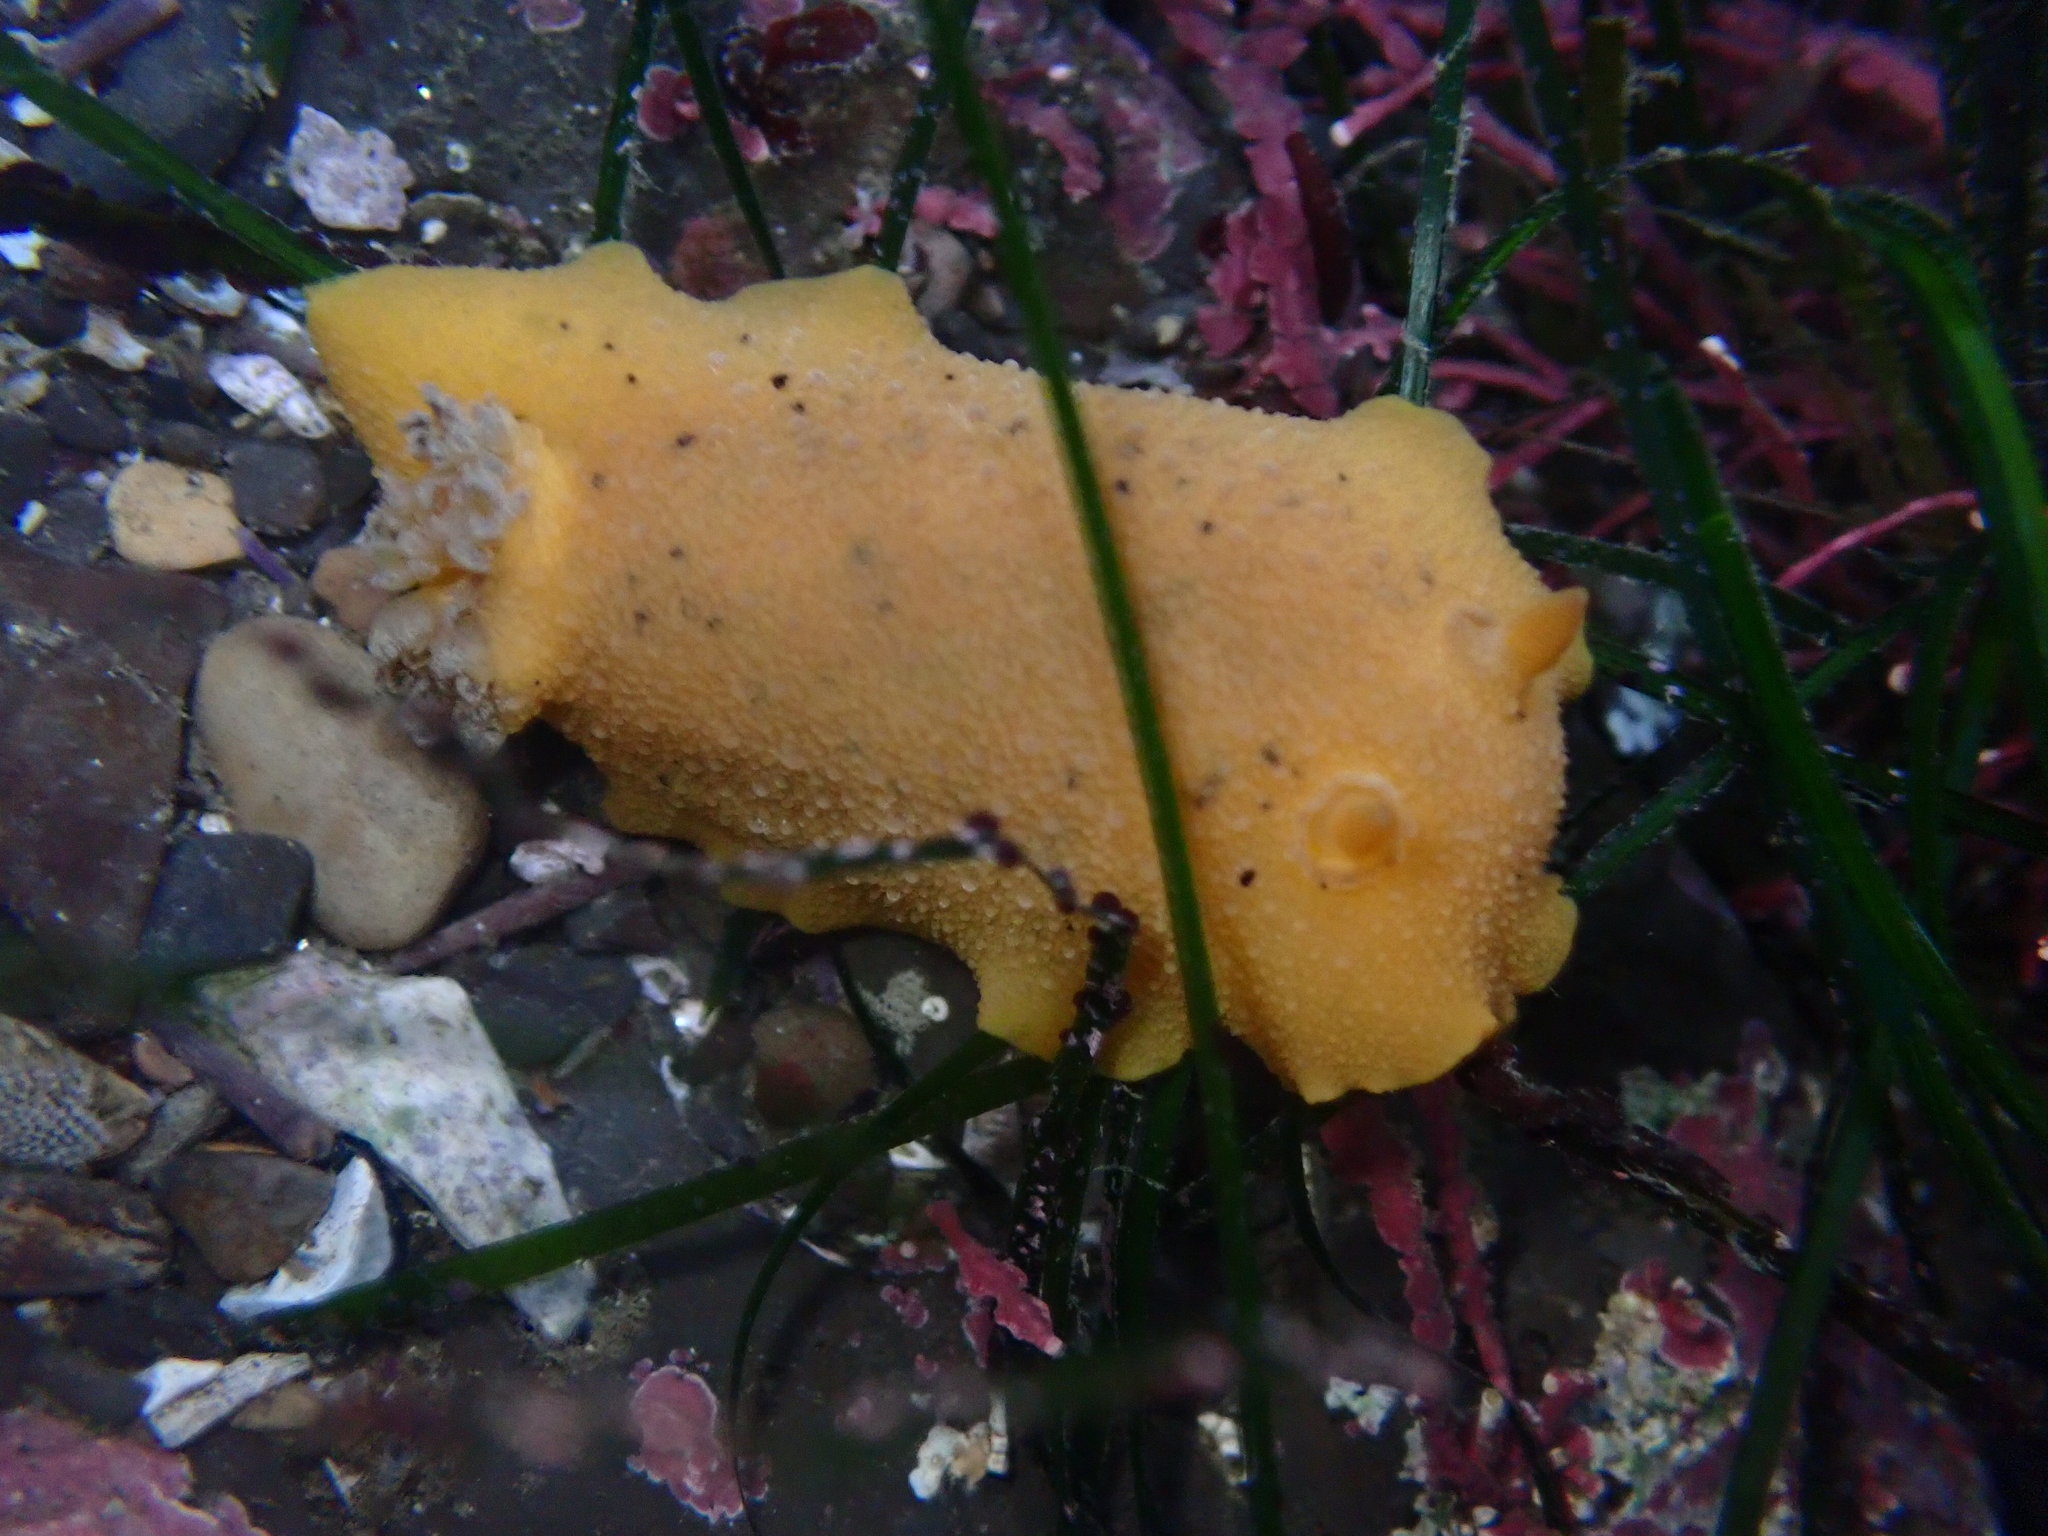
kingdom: Animalia
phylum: Mollusca
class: Gastropoda
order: Nudibranchia
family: Discodorididae
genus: Geitodoris
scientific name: Geitodoris heathi
